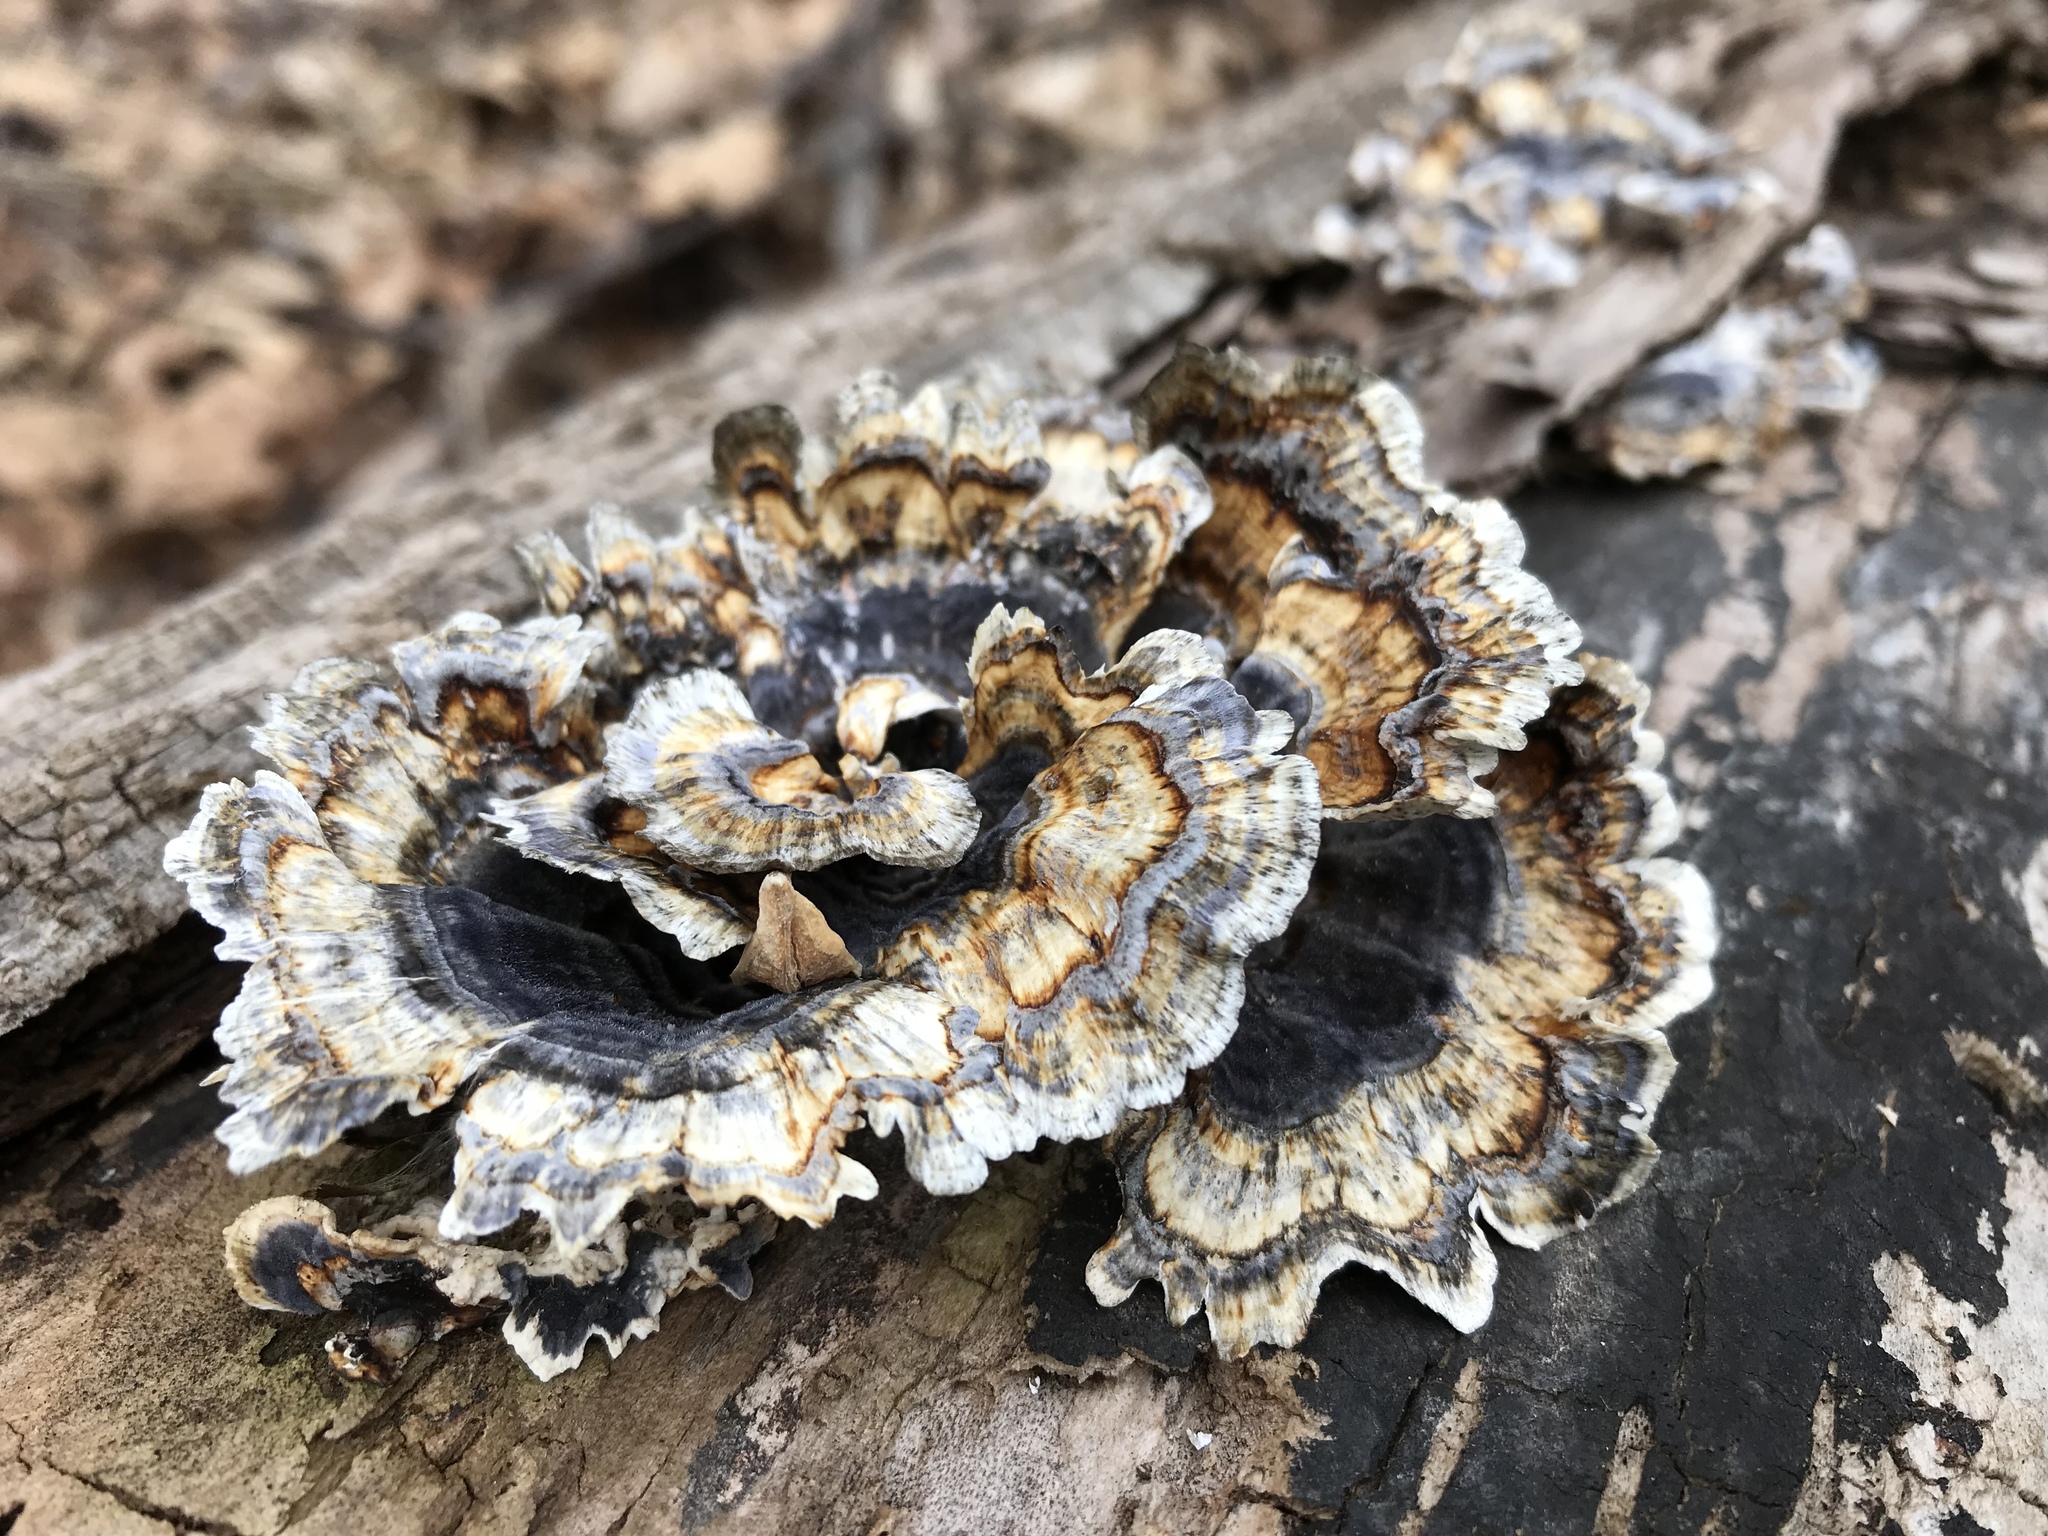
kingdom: Fungi
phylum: Basidiomycota
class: Agaricomycetes
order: Polyporales
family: Polyporaceae
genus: Trametes
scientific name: Trametes versicolor
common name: Turkeytail
